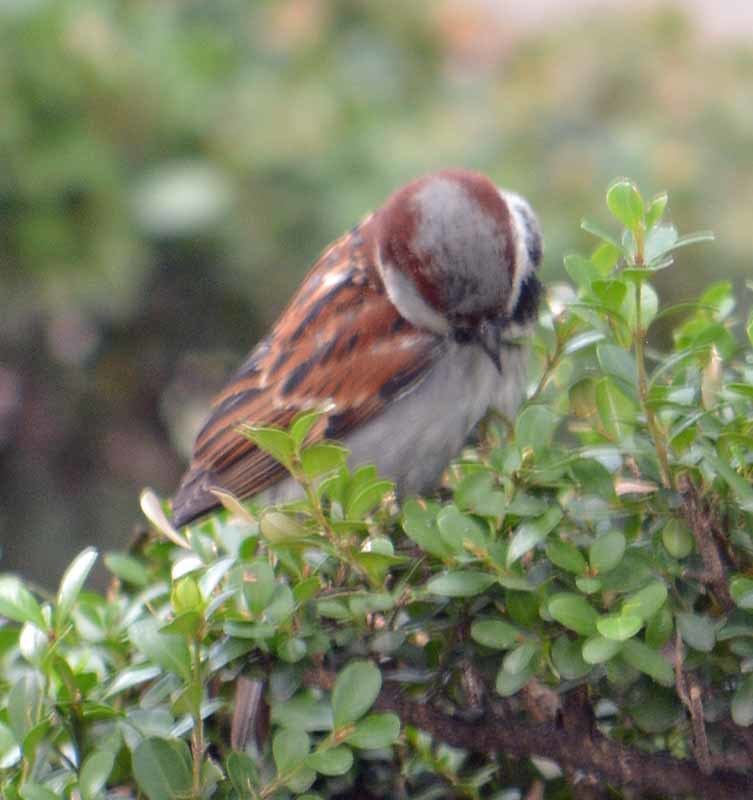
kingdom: Animalia
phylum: Chordata
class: Aves
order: Passeriformes
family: Passeridae
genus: Passer
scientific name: Passer domesticus
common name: House sparrow
